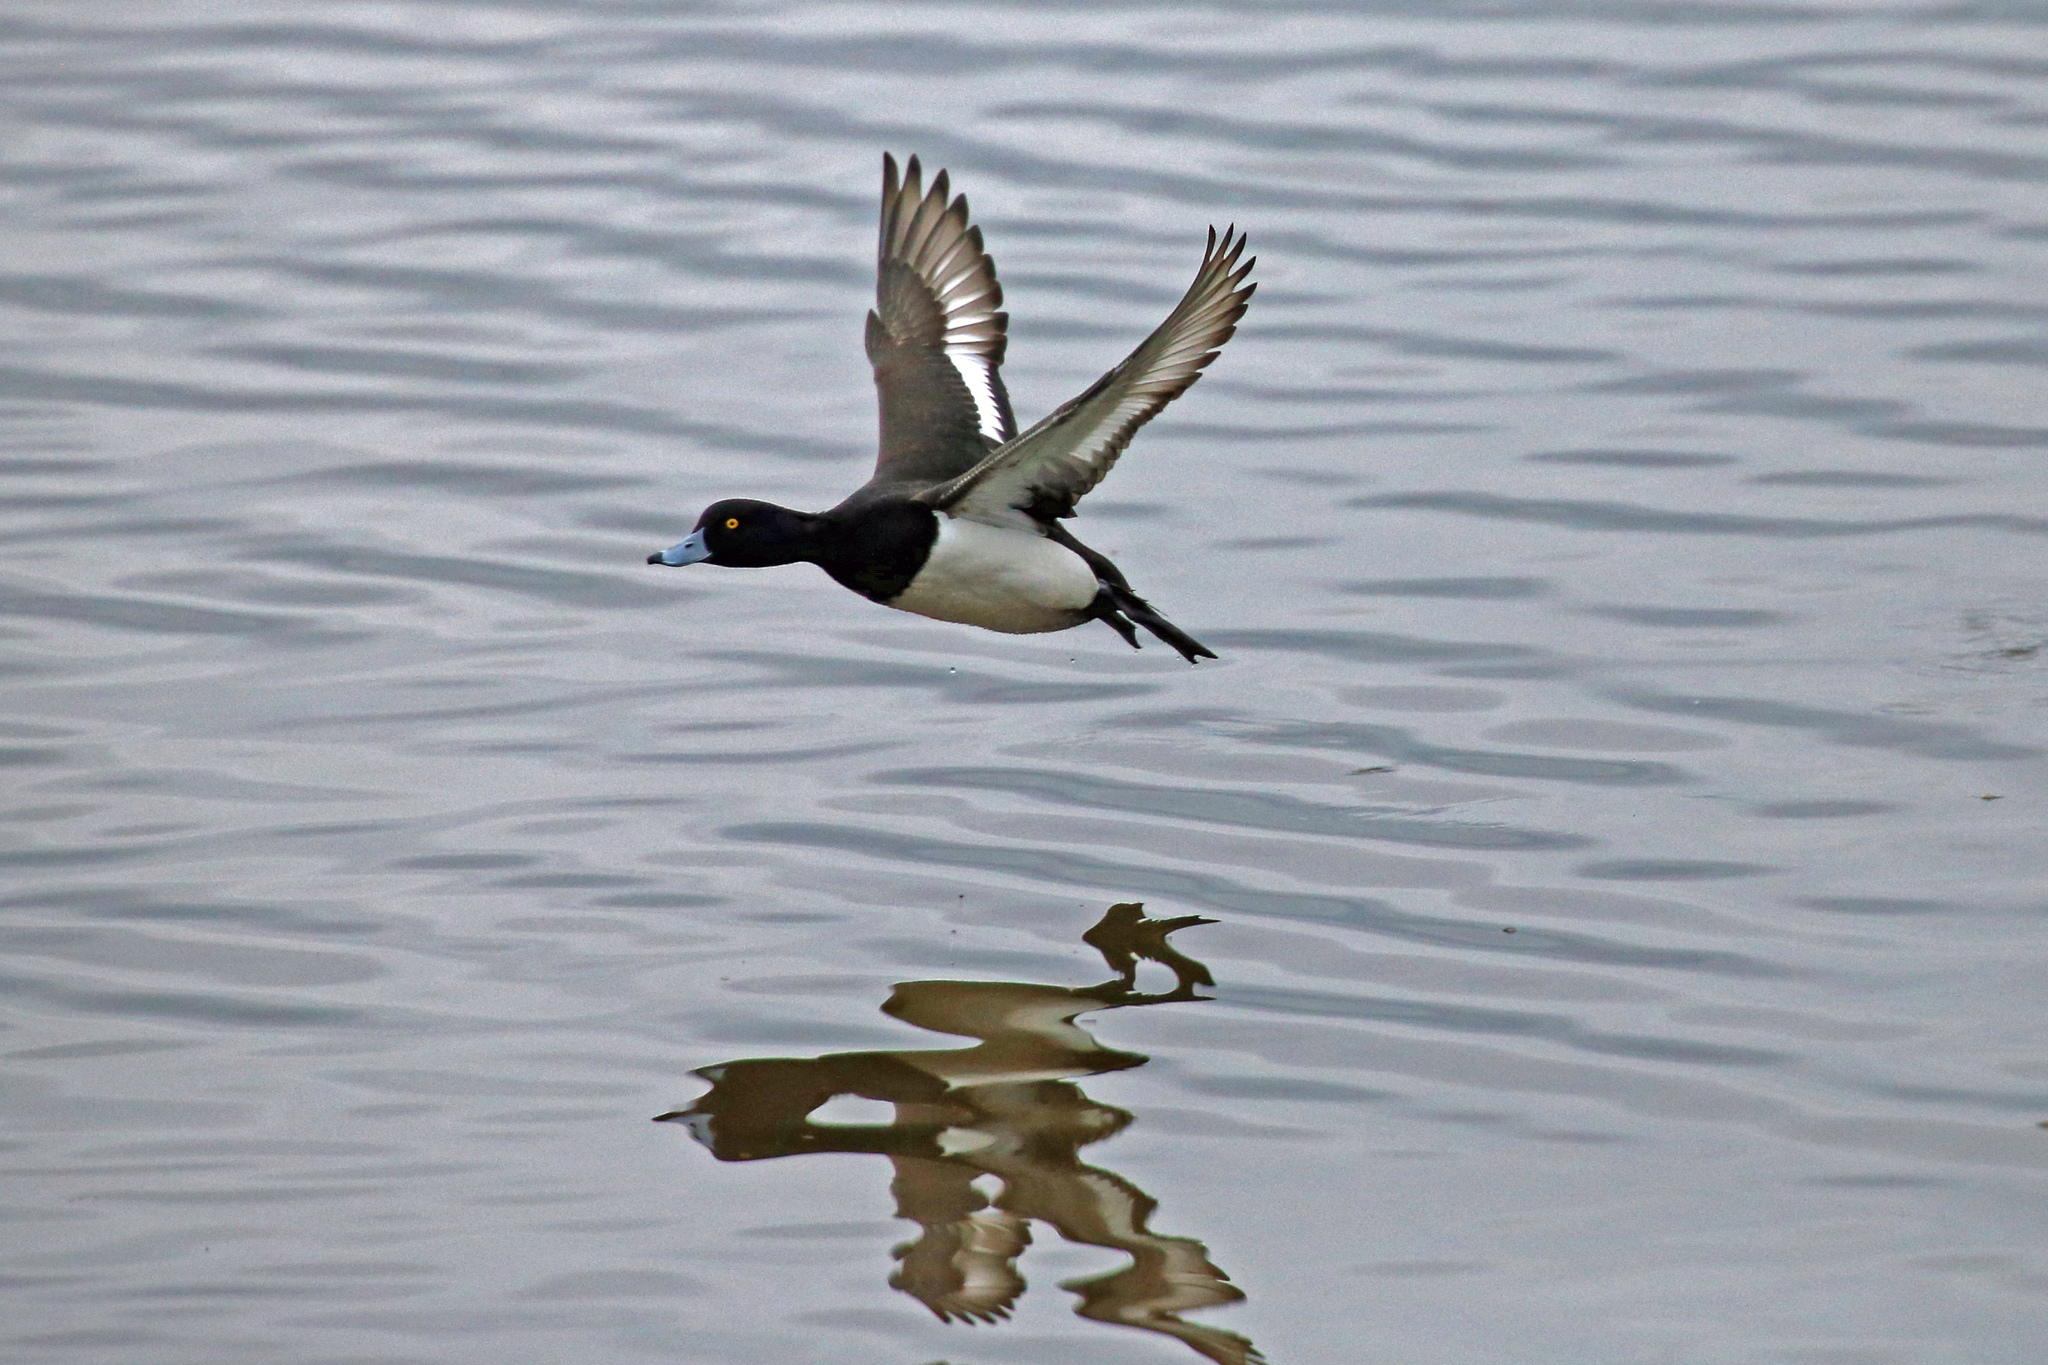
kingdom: Animalia
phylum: Chordata
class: Aves
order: Anseriformes
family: Anatidae
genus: Aythya
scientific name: Aythya fuligula
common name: Tufted duck
